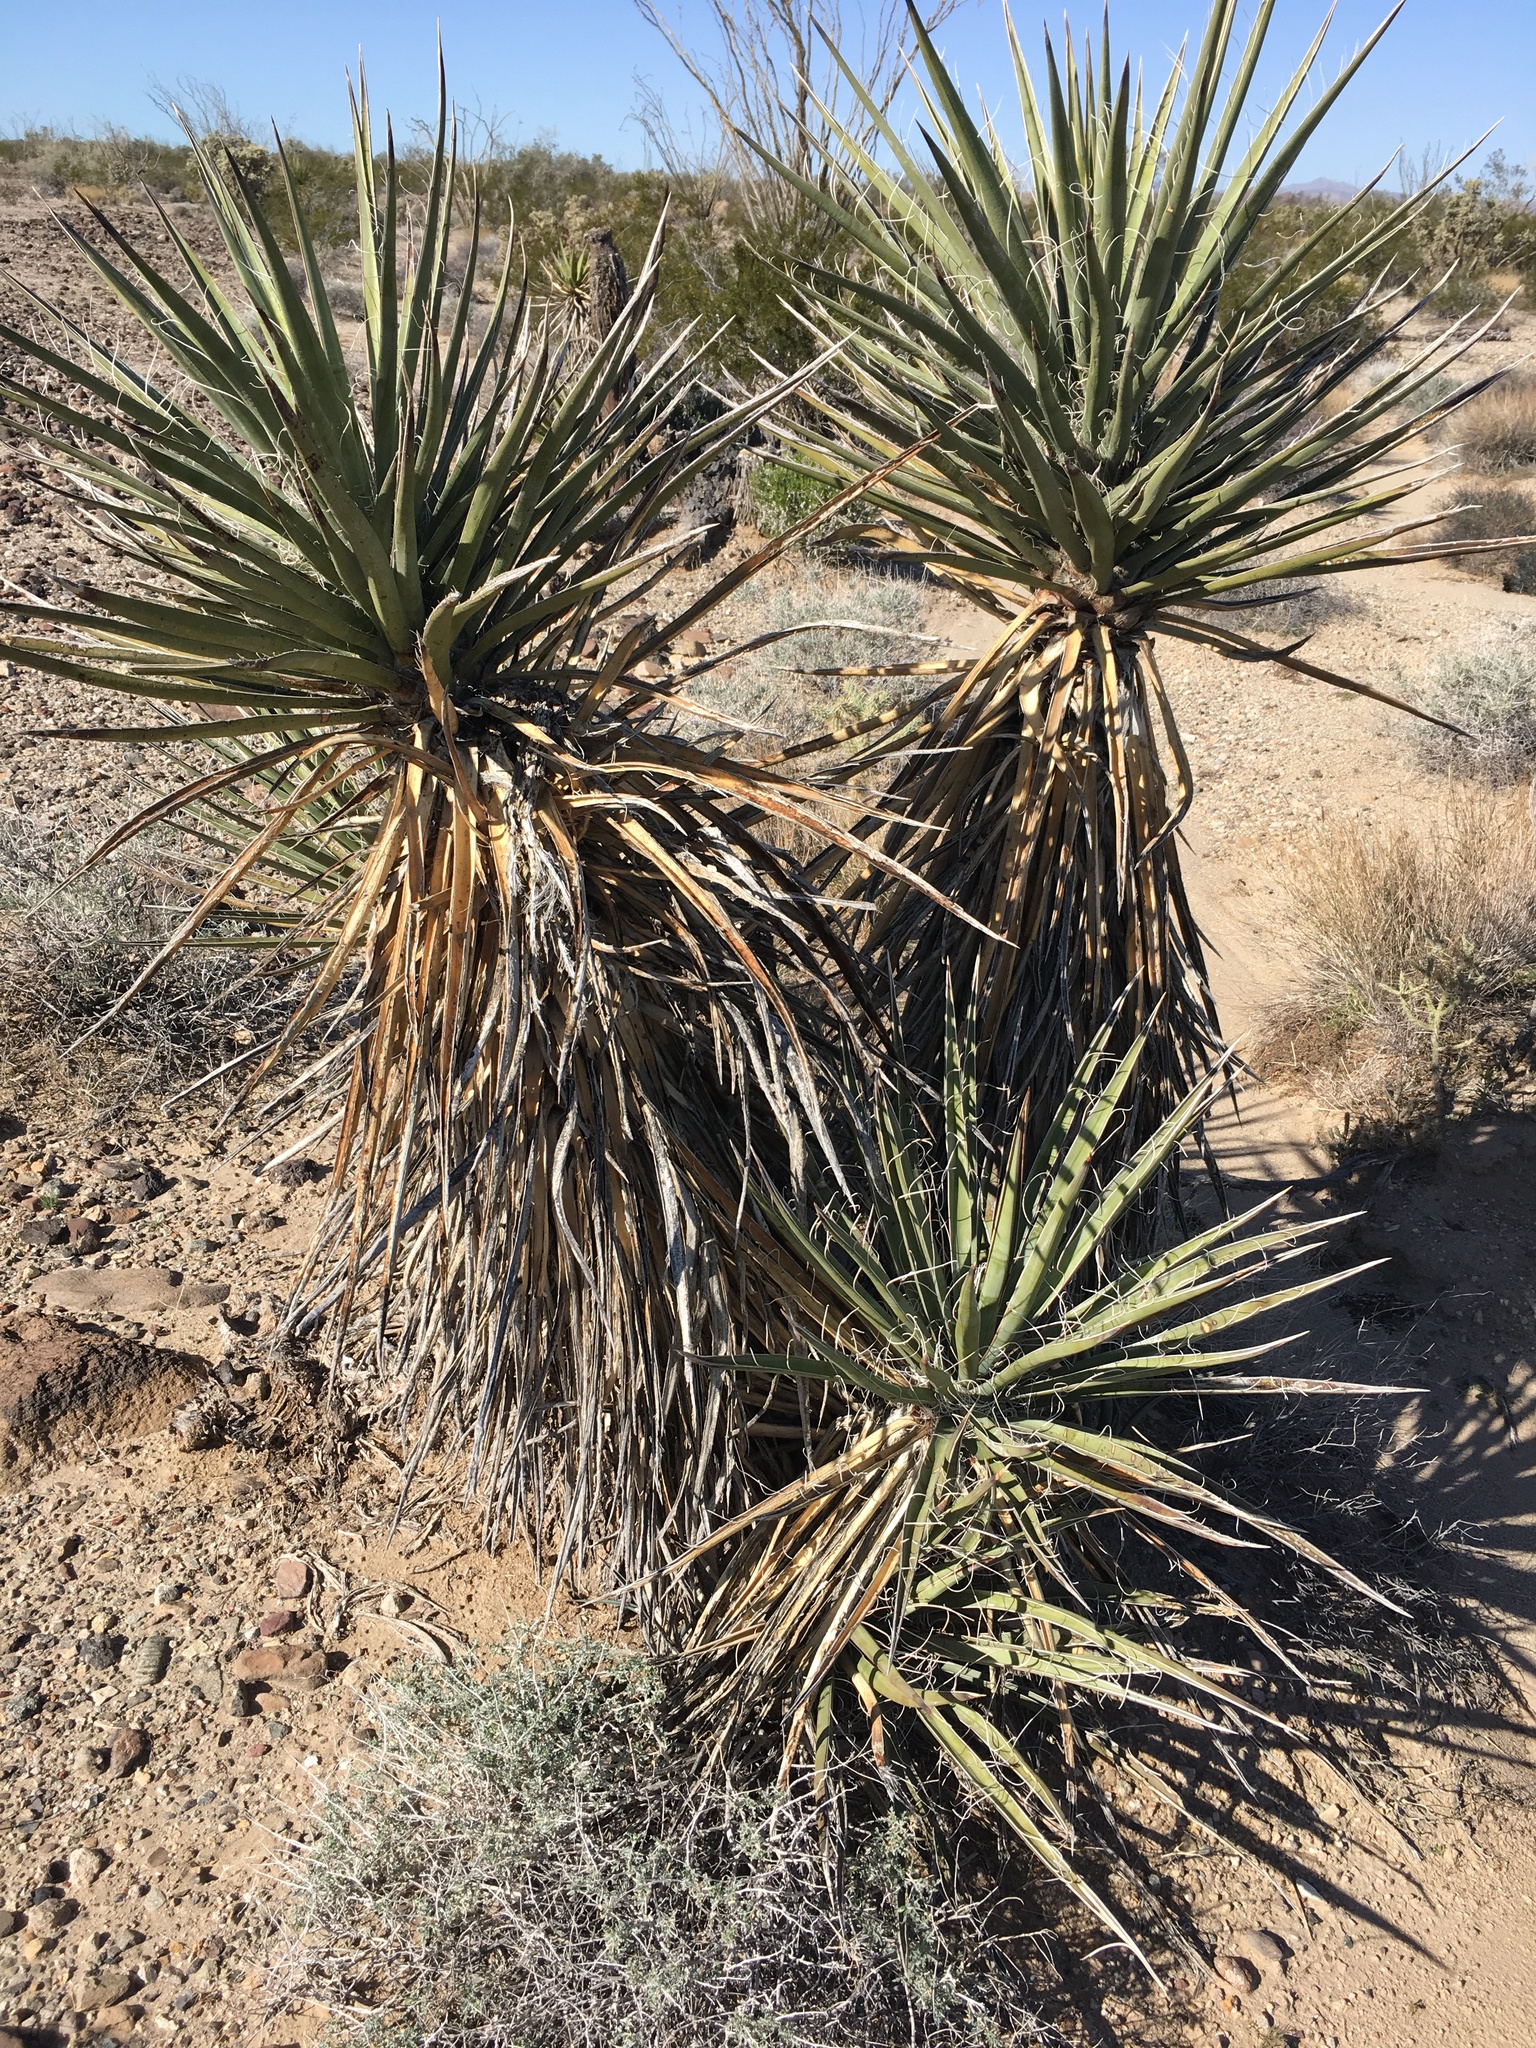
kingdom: Plantae
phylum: Tracheophyta
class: Liliopsida
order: Asparagales
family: Asparagaceae
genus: Yucca
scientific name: Yucca schidigera
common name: Mojave yucca
